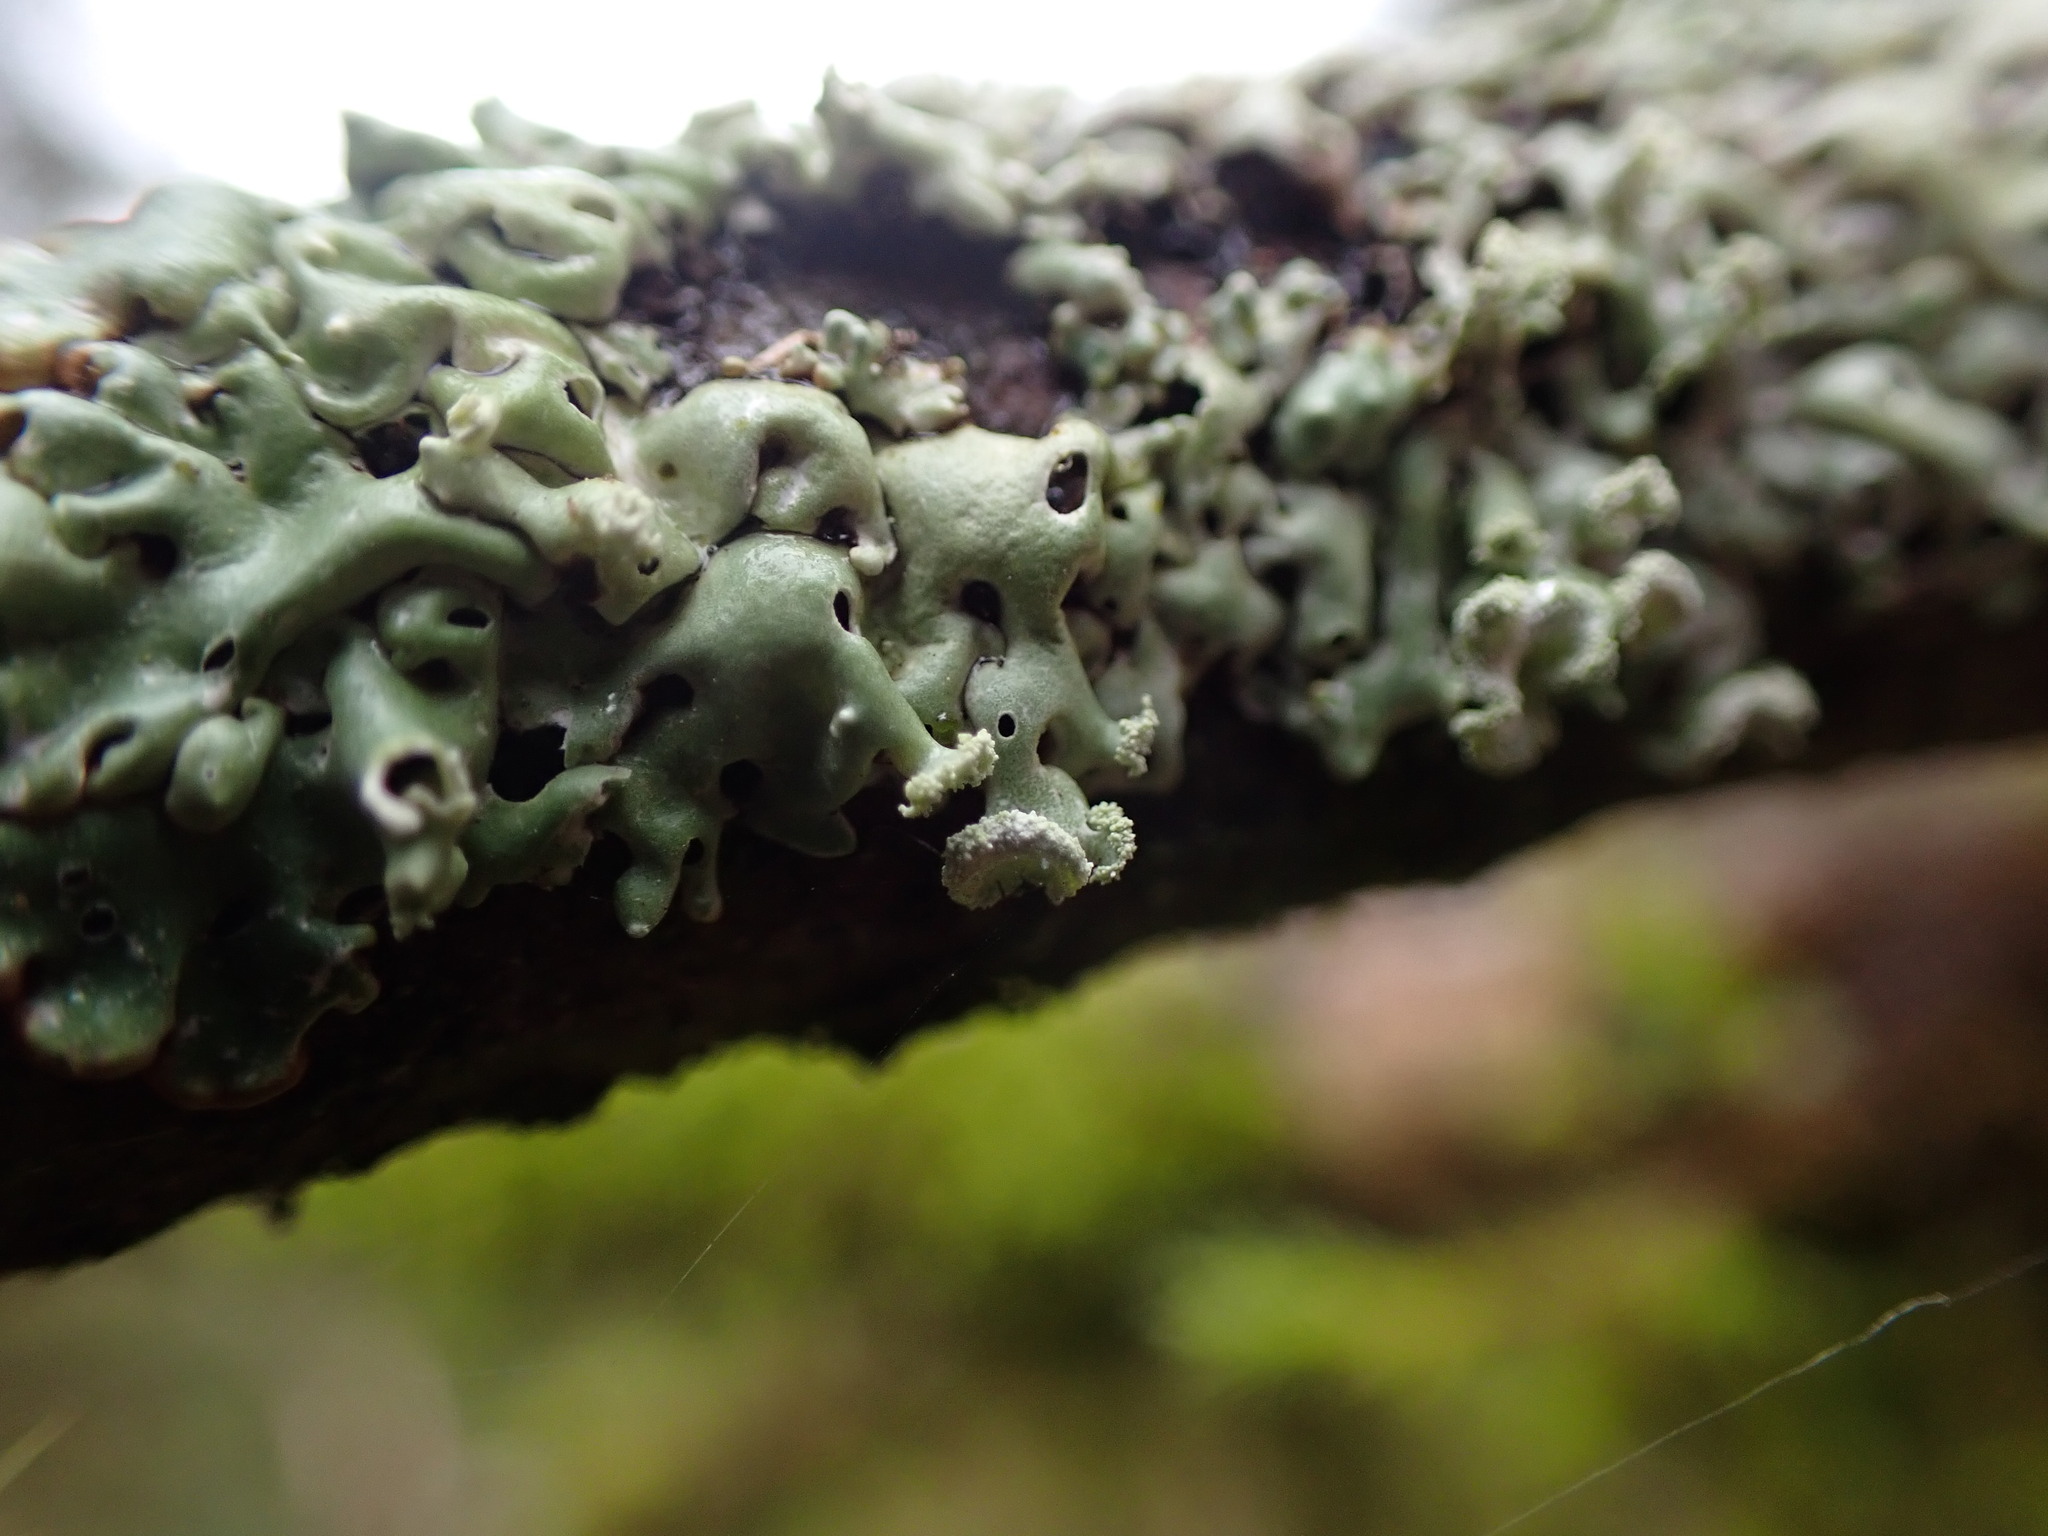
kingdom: Fungi
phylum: Ascomycota
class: Lecanoromycetes
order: Lecanorales
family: Parmeliaceae
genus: Menegazzia
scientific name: Menegazzia subsimilis
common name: Tree flute lichen
